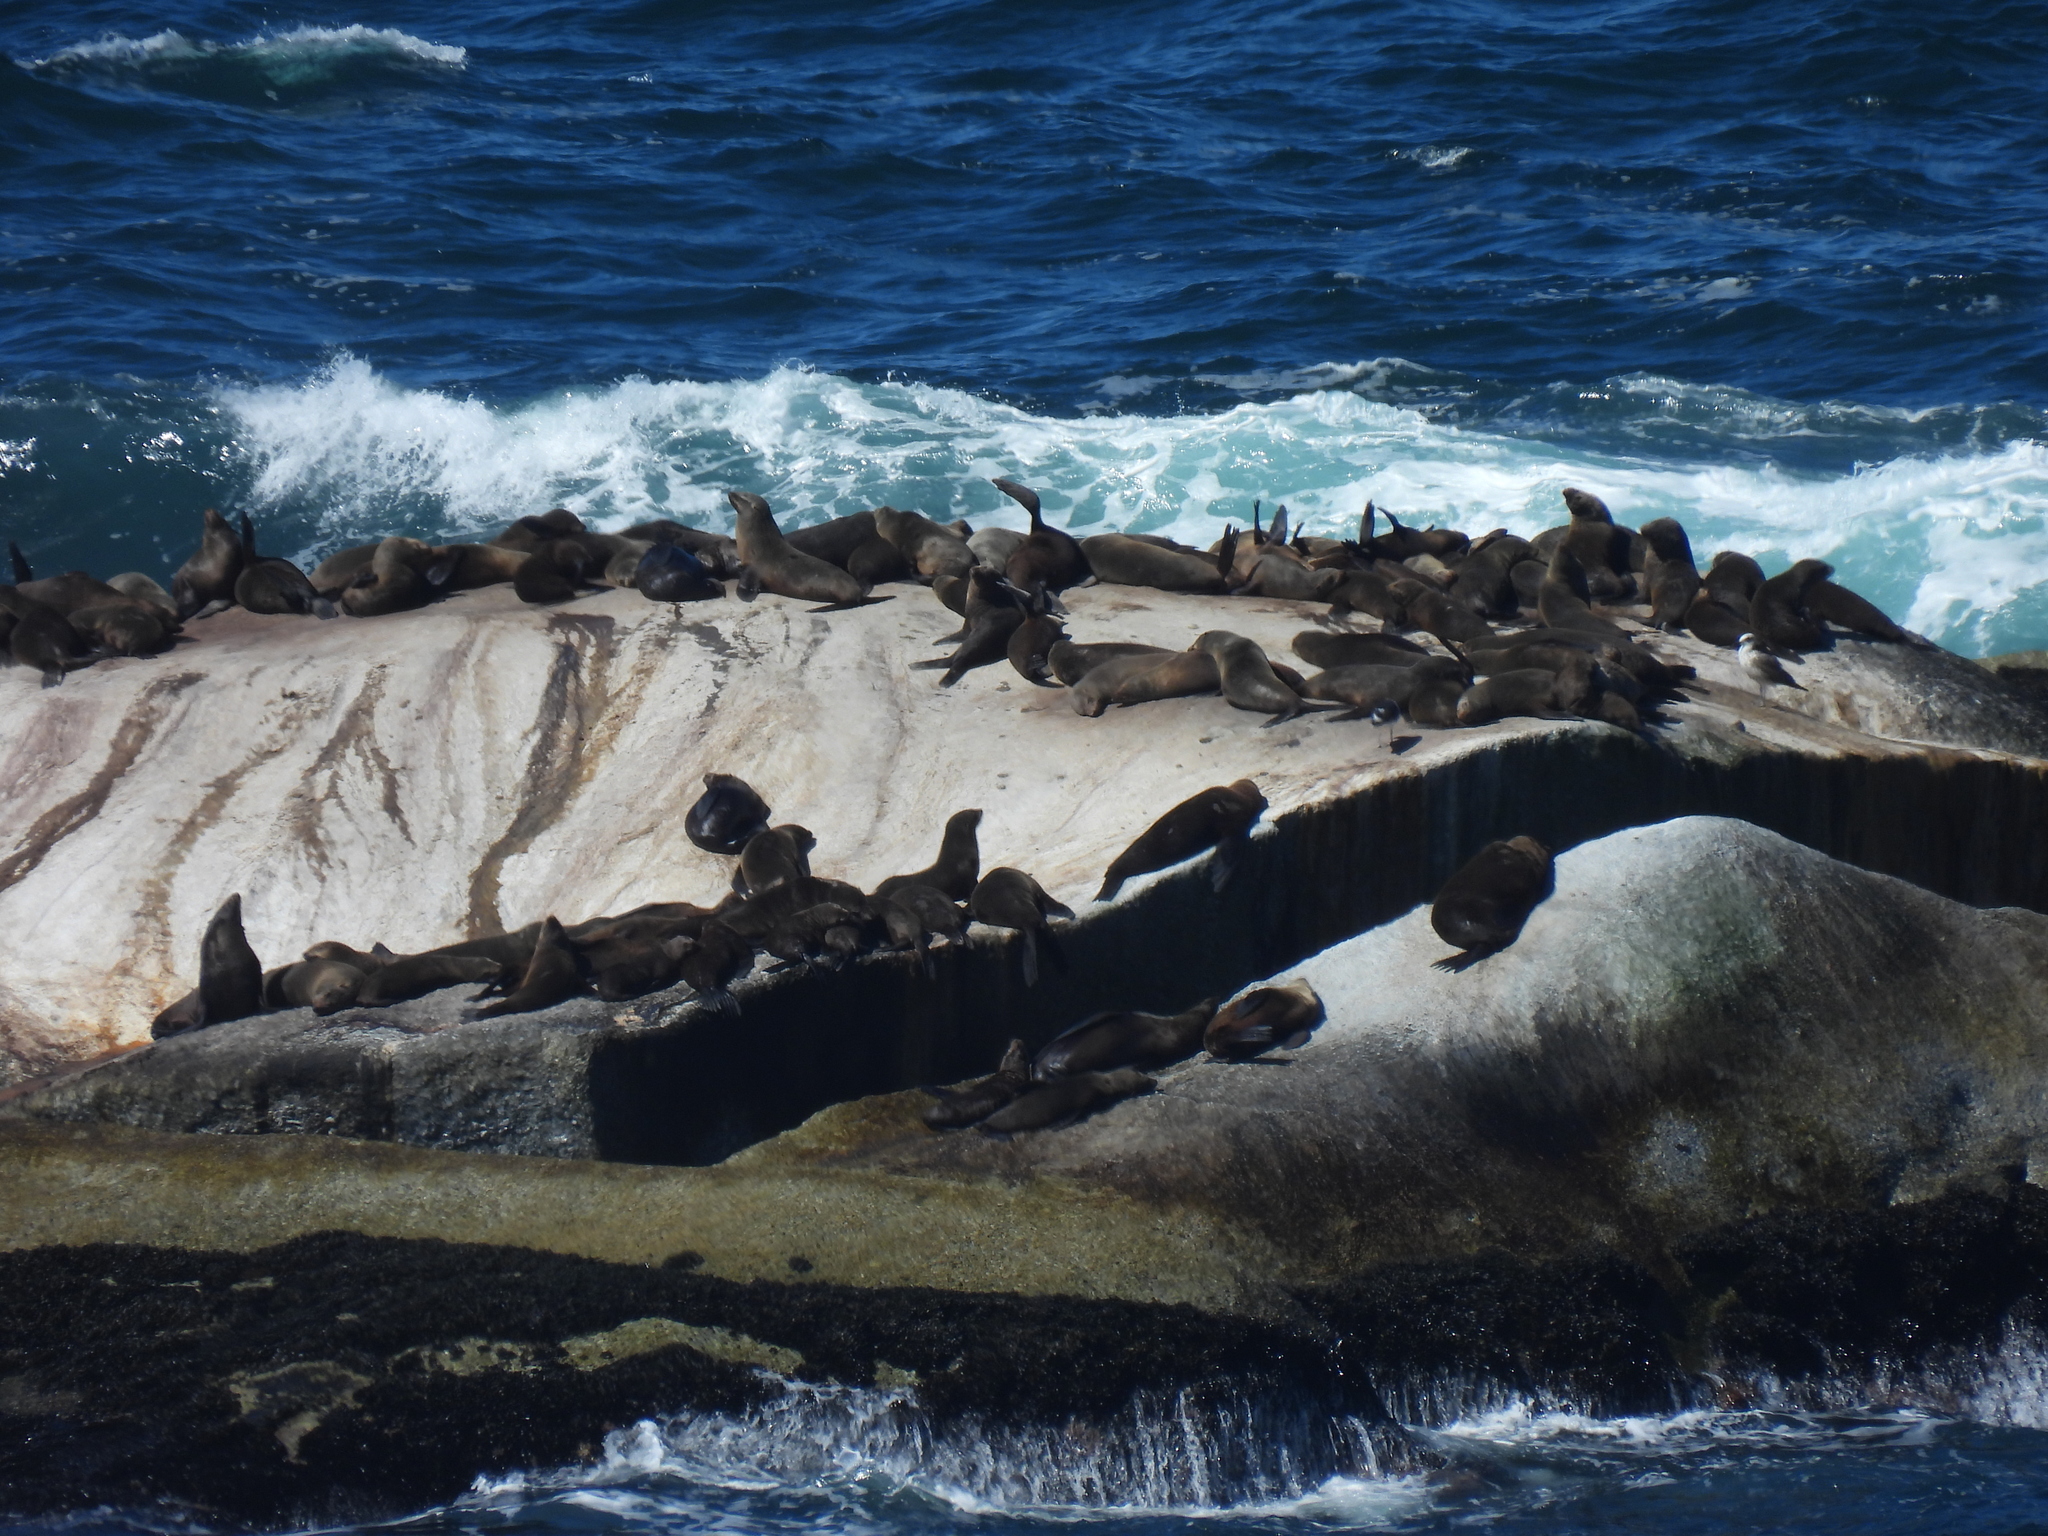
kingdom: Animalia
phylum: Chordata
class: Mammalia
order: Carnivora
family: Otariidae
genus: Arctocephalus
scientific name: Arctocephalus pusillus
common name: Brown fur seal
